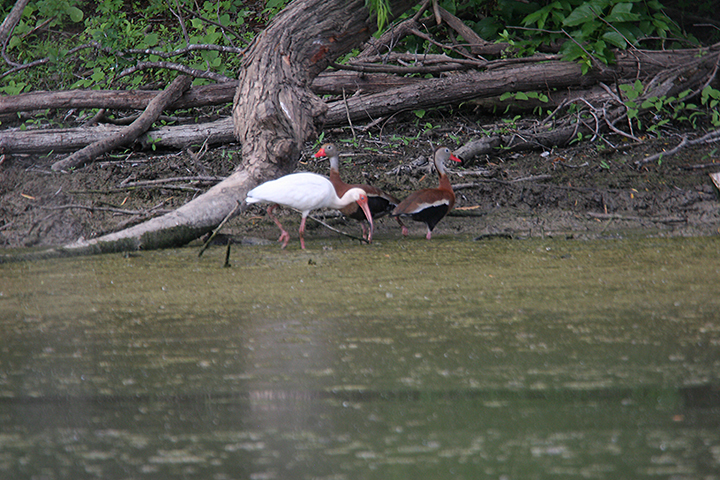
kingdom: Animalia
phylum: Chordata
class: Aves
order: Pelecaniformes
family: Threskiornithidae
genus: Eudocimus
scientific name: Eudocimus albus
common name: White ibis
